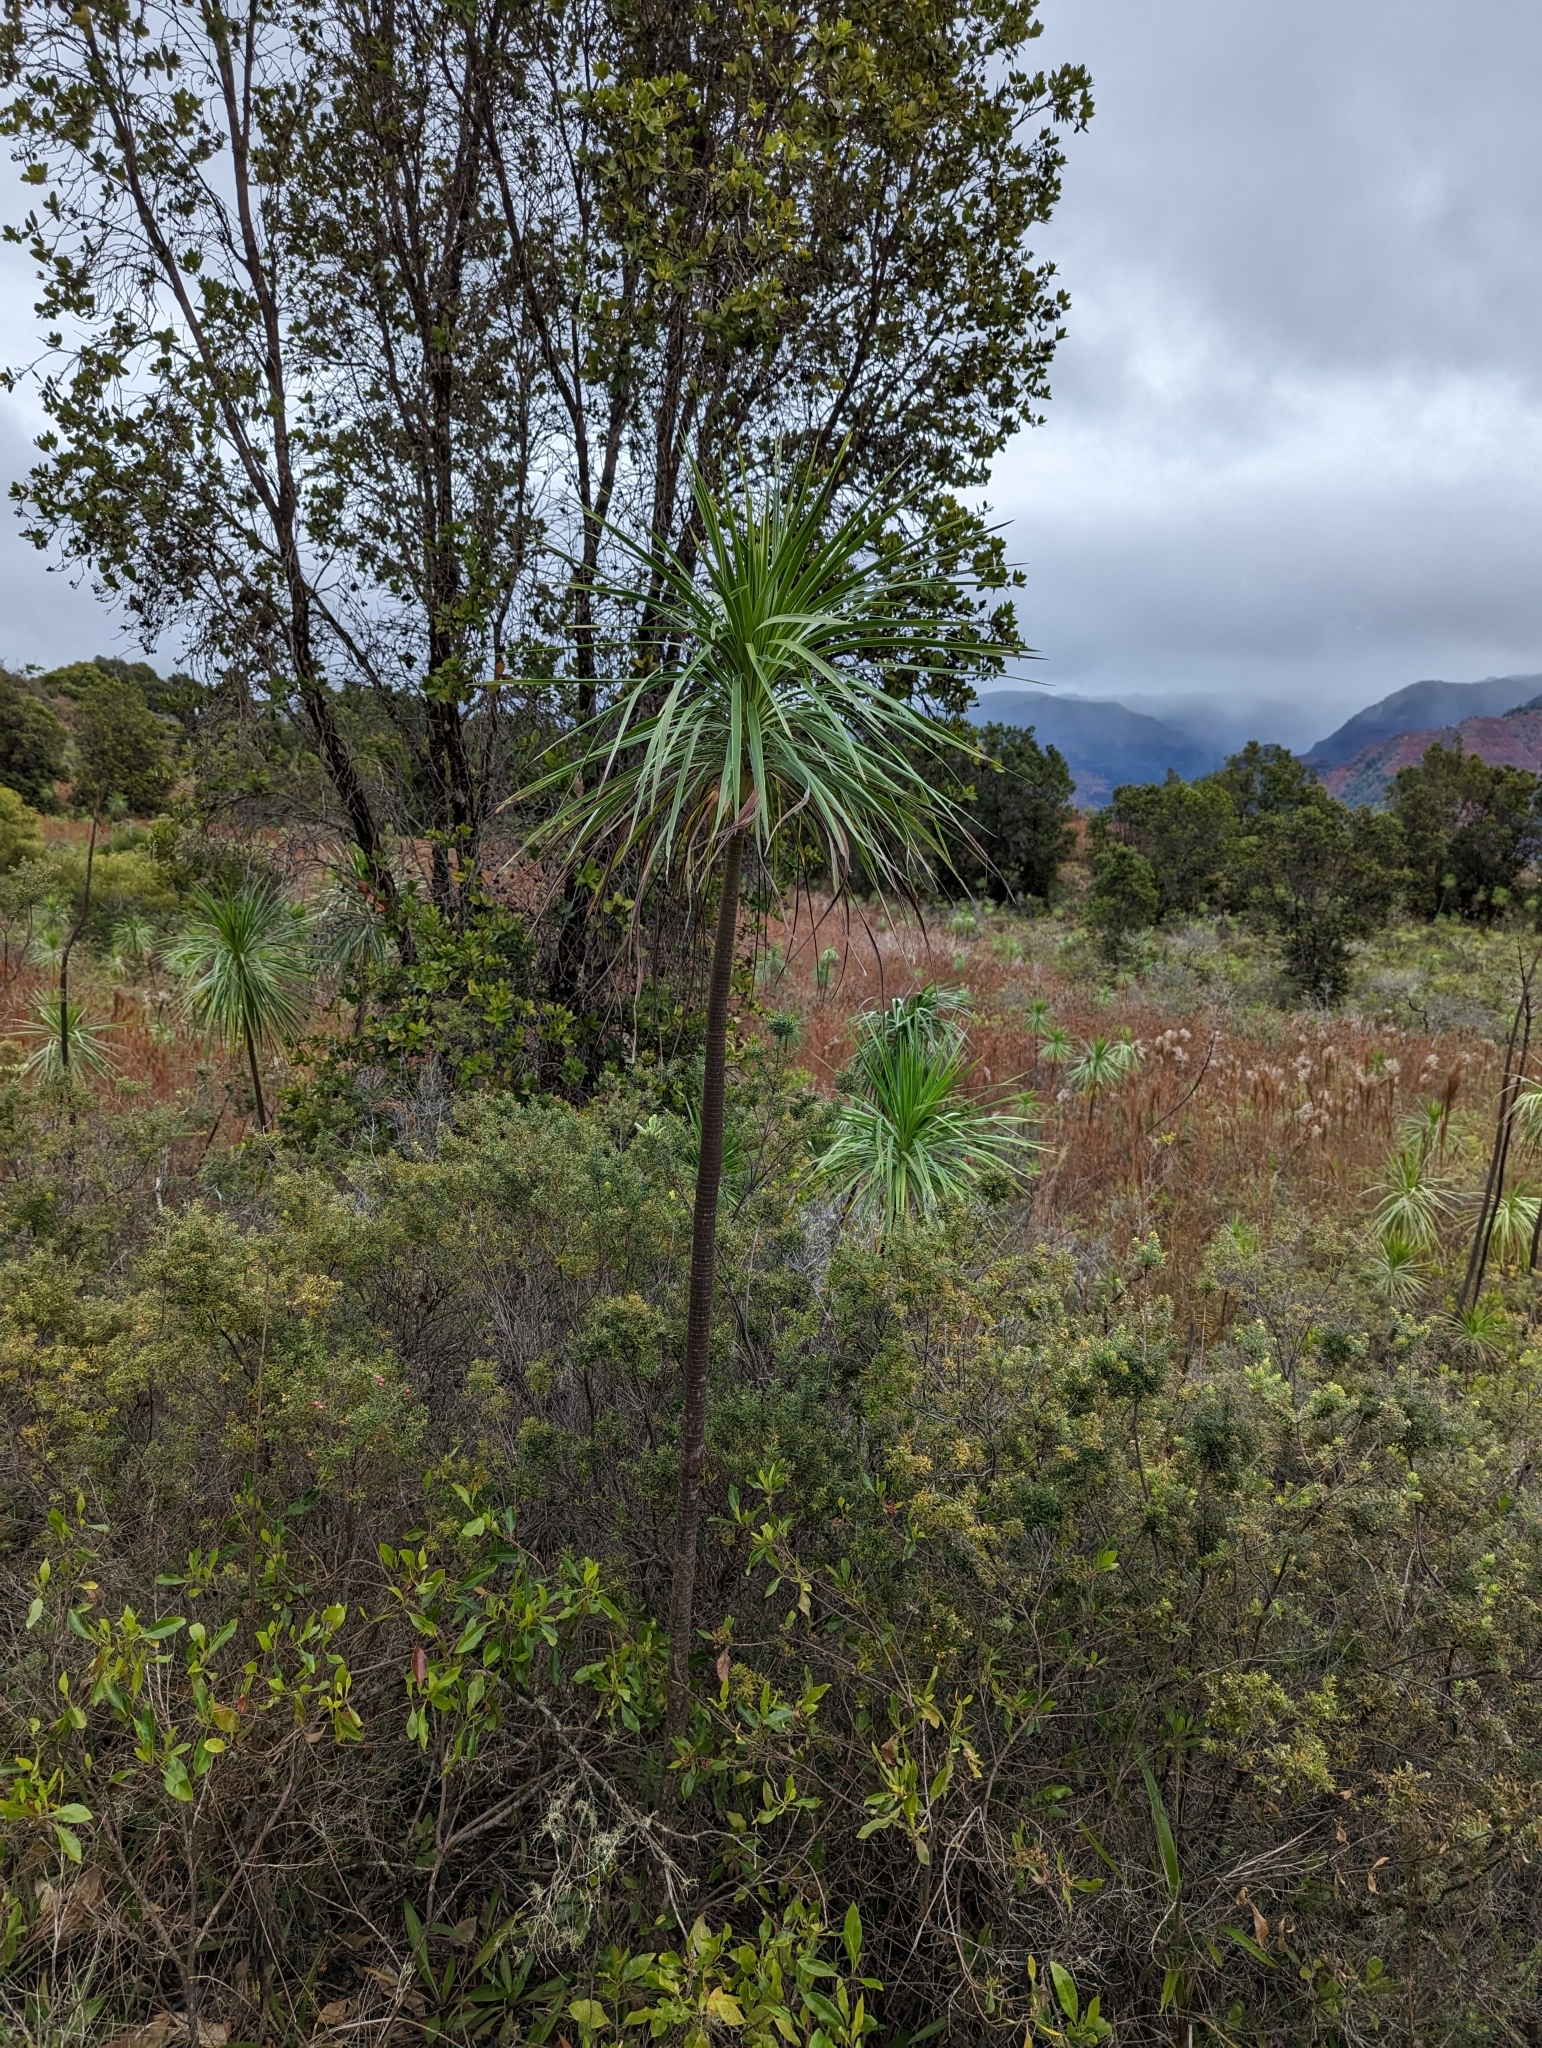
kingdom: Plantae
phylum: Tracheophyta
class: Magnoliopsida
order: Asterales
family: Asteraceae
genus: Wilkesia
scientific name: Wilkesia gymnoxiphium
